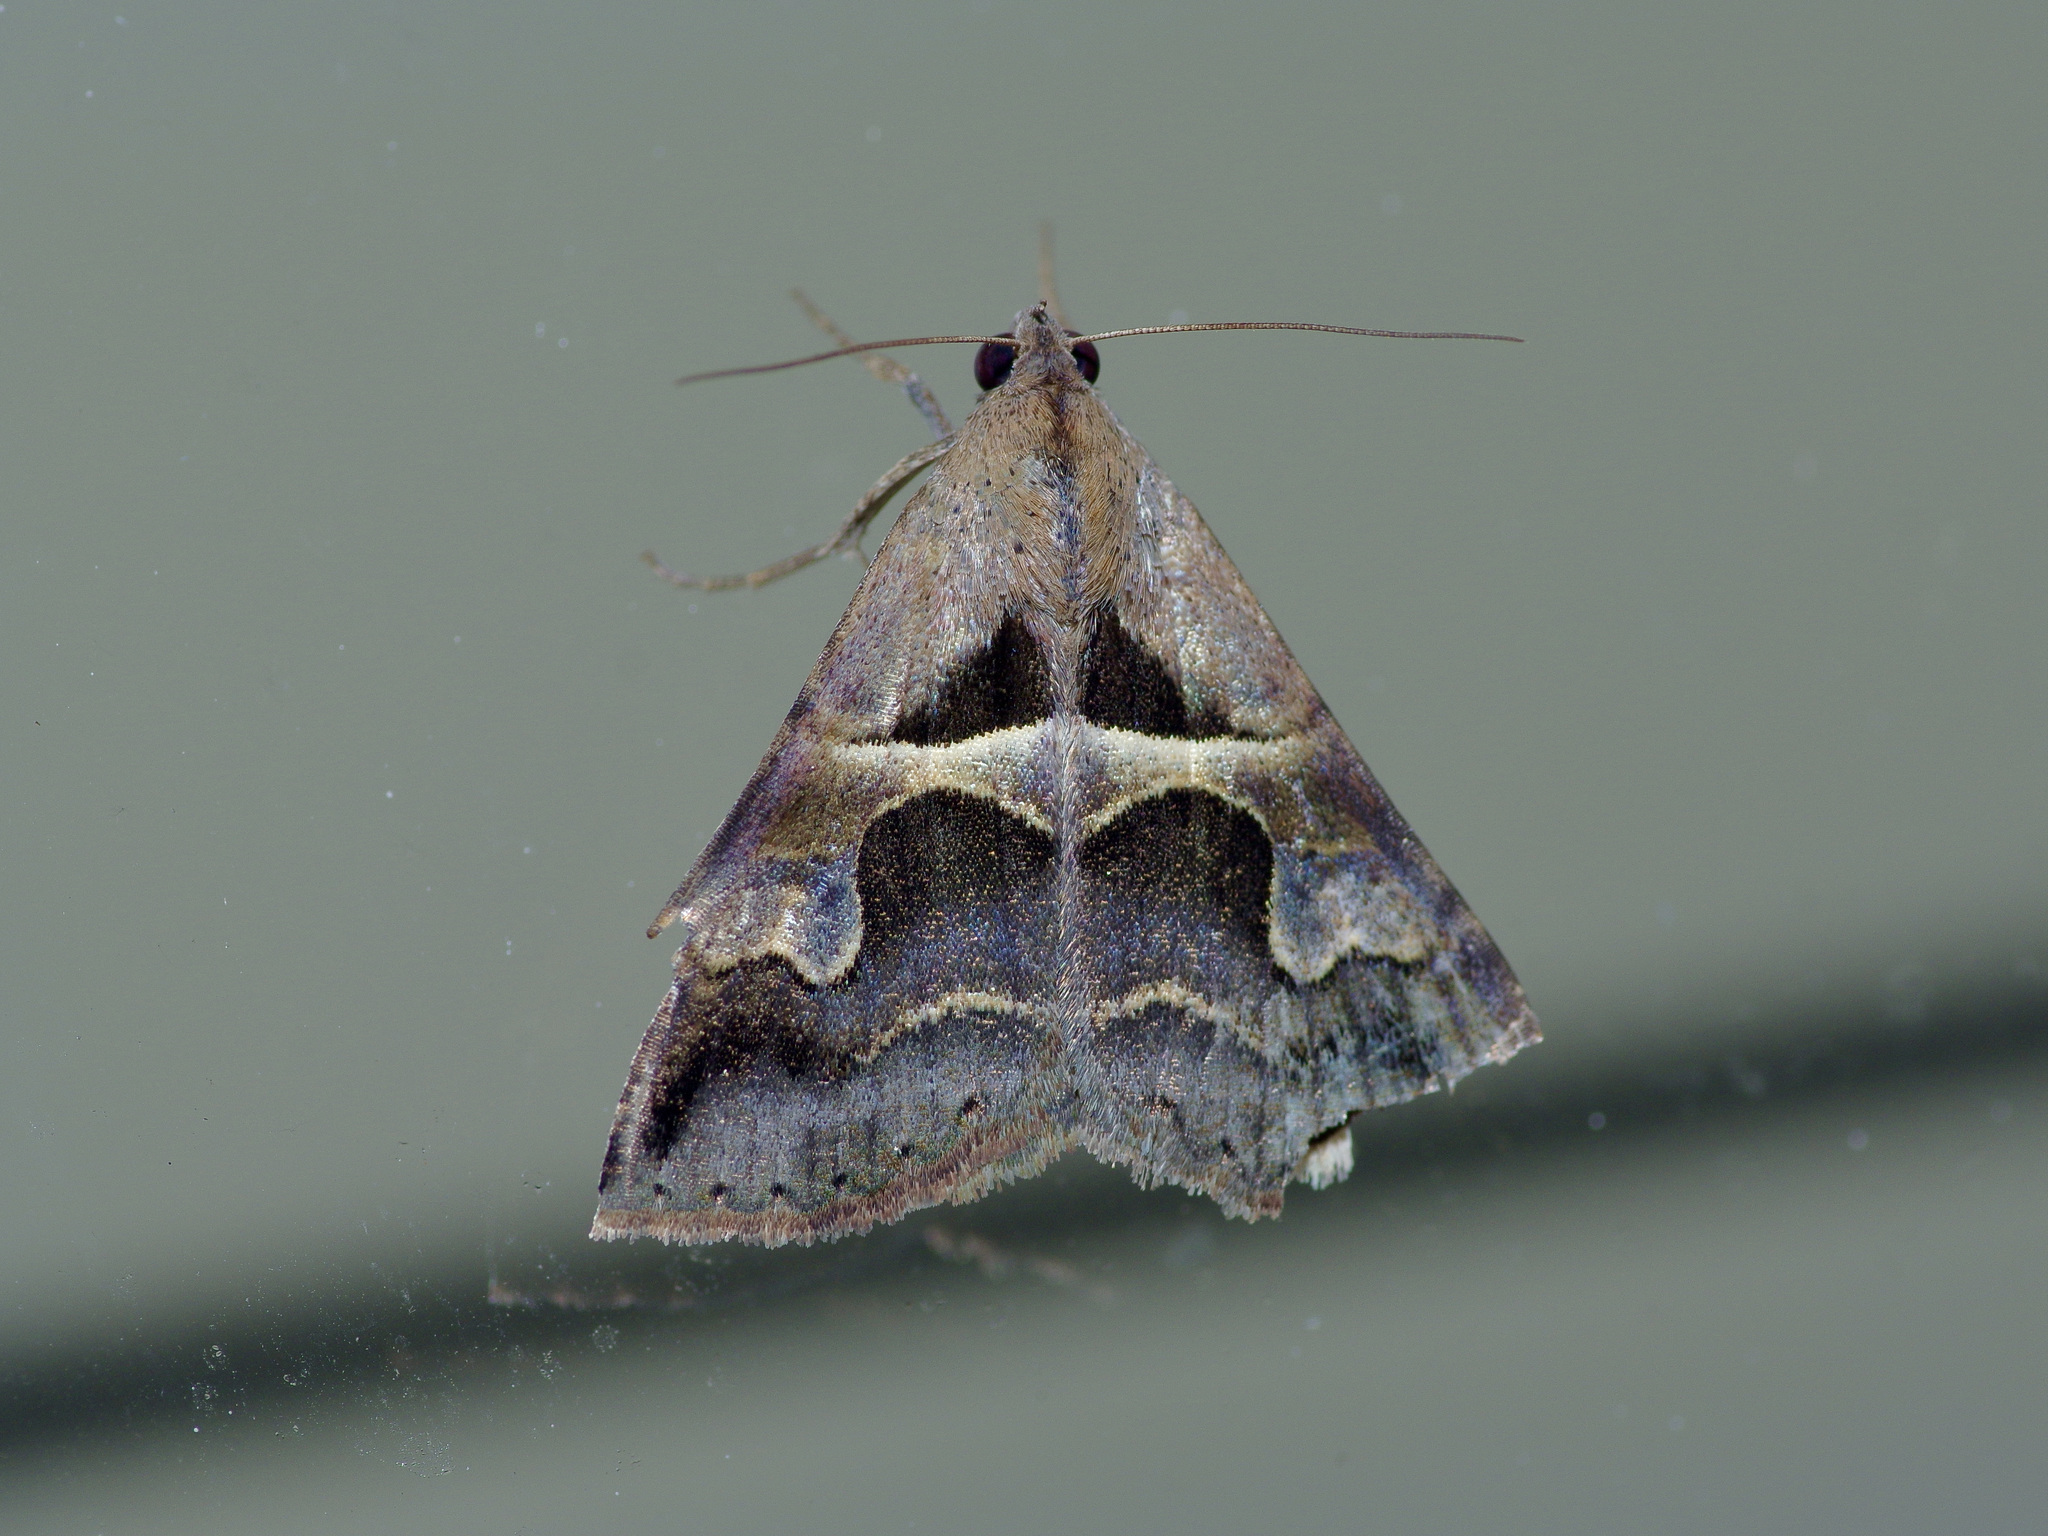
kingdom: Animalia
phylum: Arthropoda
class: Insecta
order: Lepidoptera
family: Erebidae
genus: Melipotis
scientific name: Melipotis cellaris
